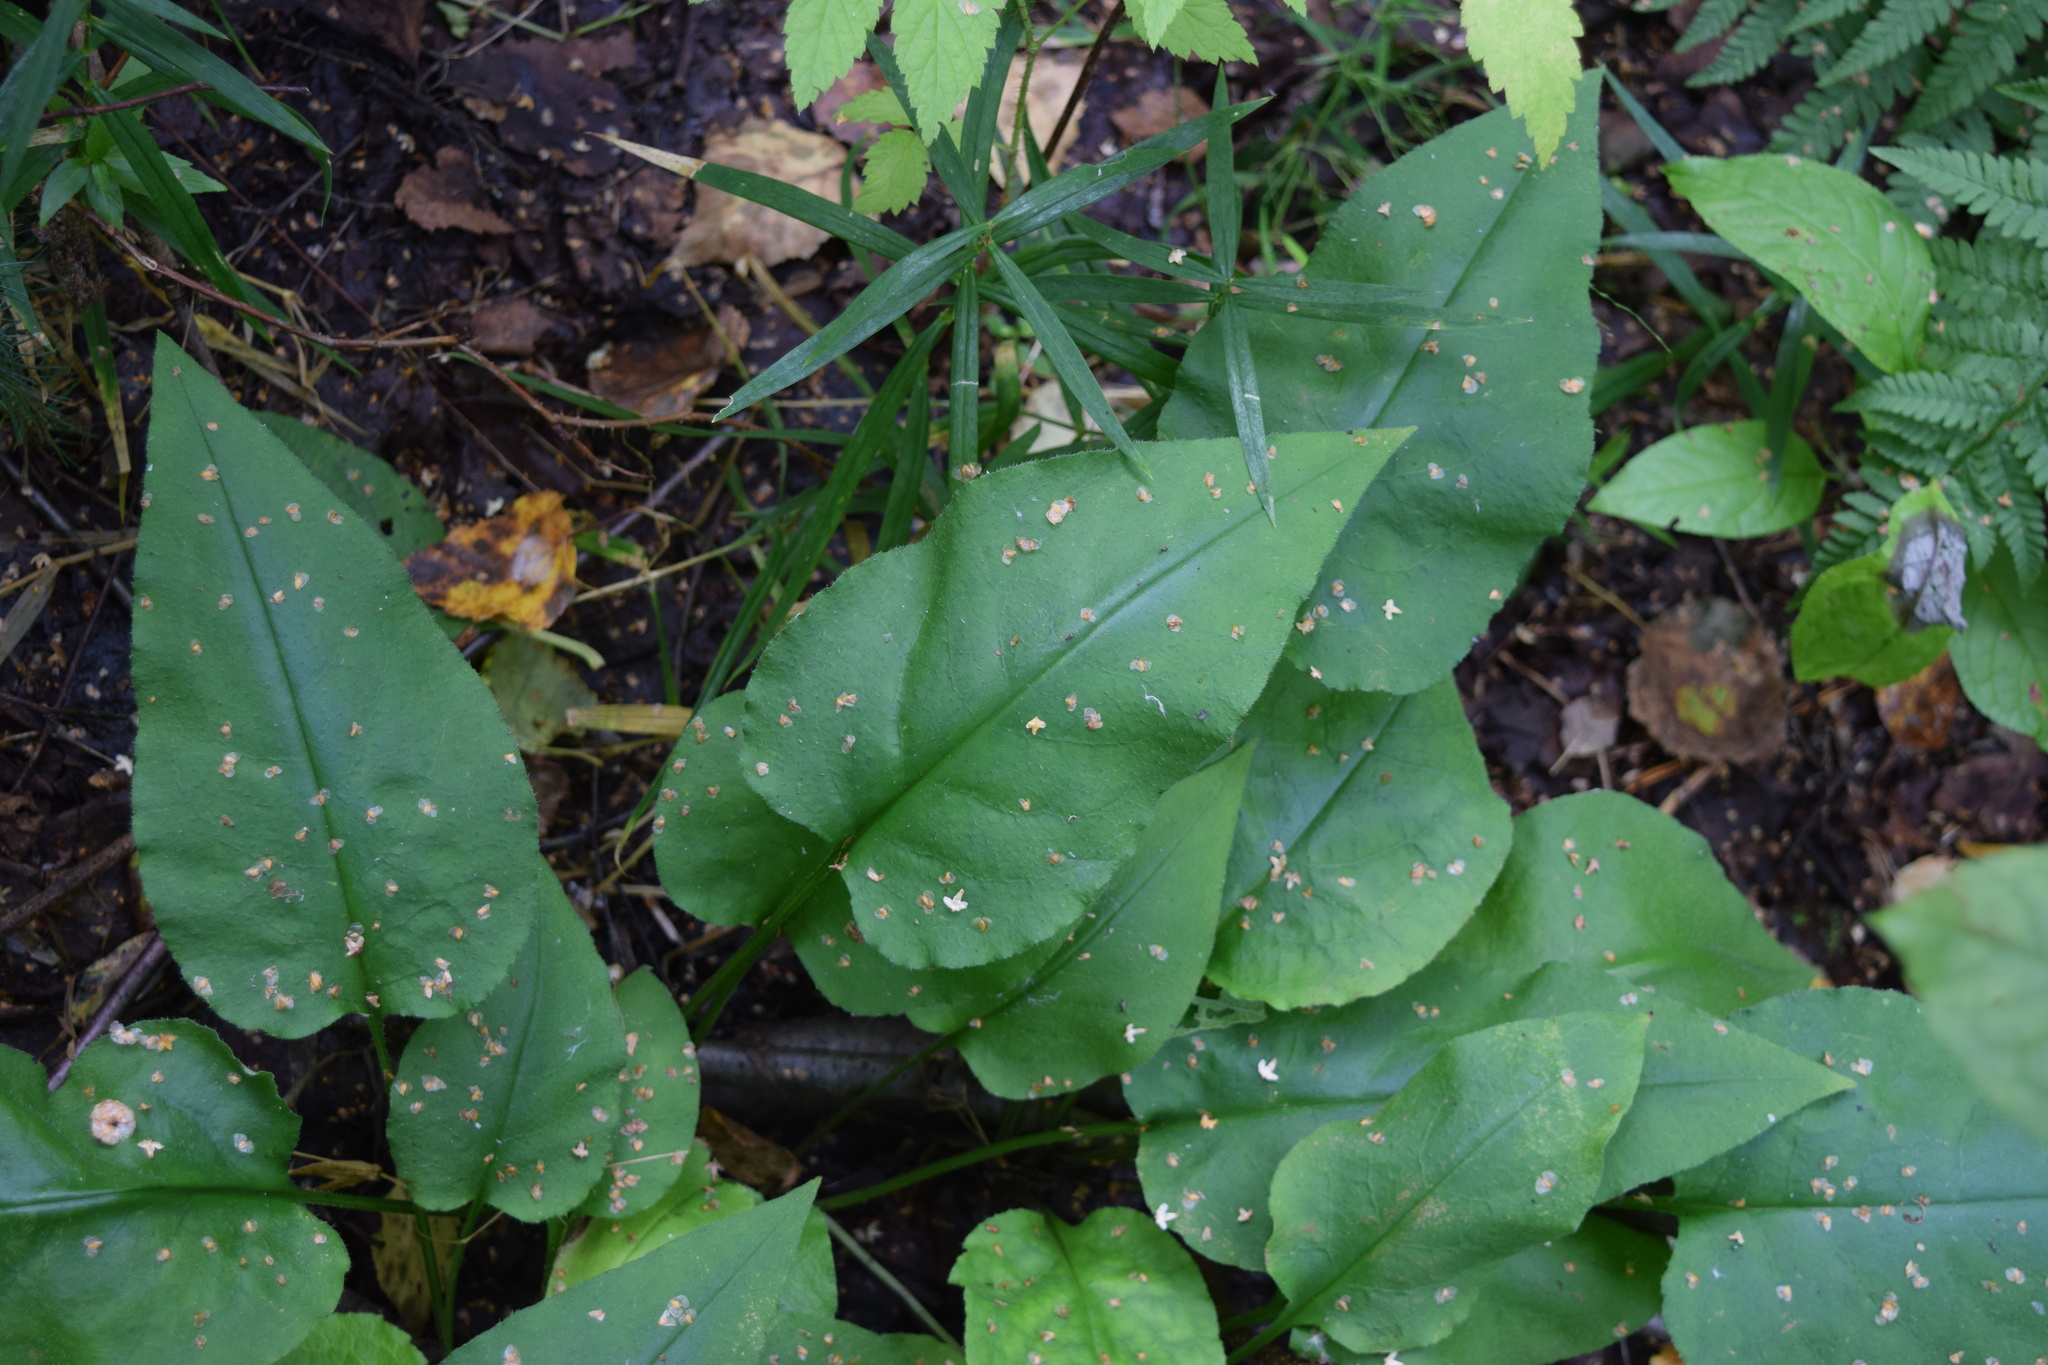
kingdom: Plantae
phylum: Tracheophyta
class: Magnoliopsida
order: Boraginales
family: Boraginaceae
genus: Pulmonaria
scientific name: Pulmonaria obscura
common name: Suffolk lungwort
